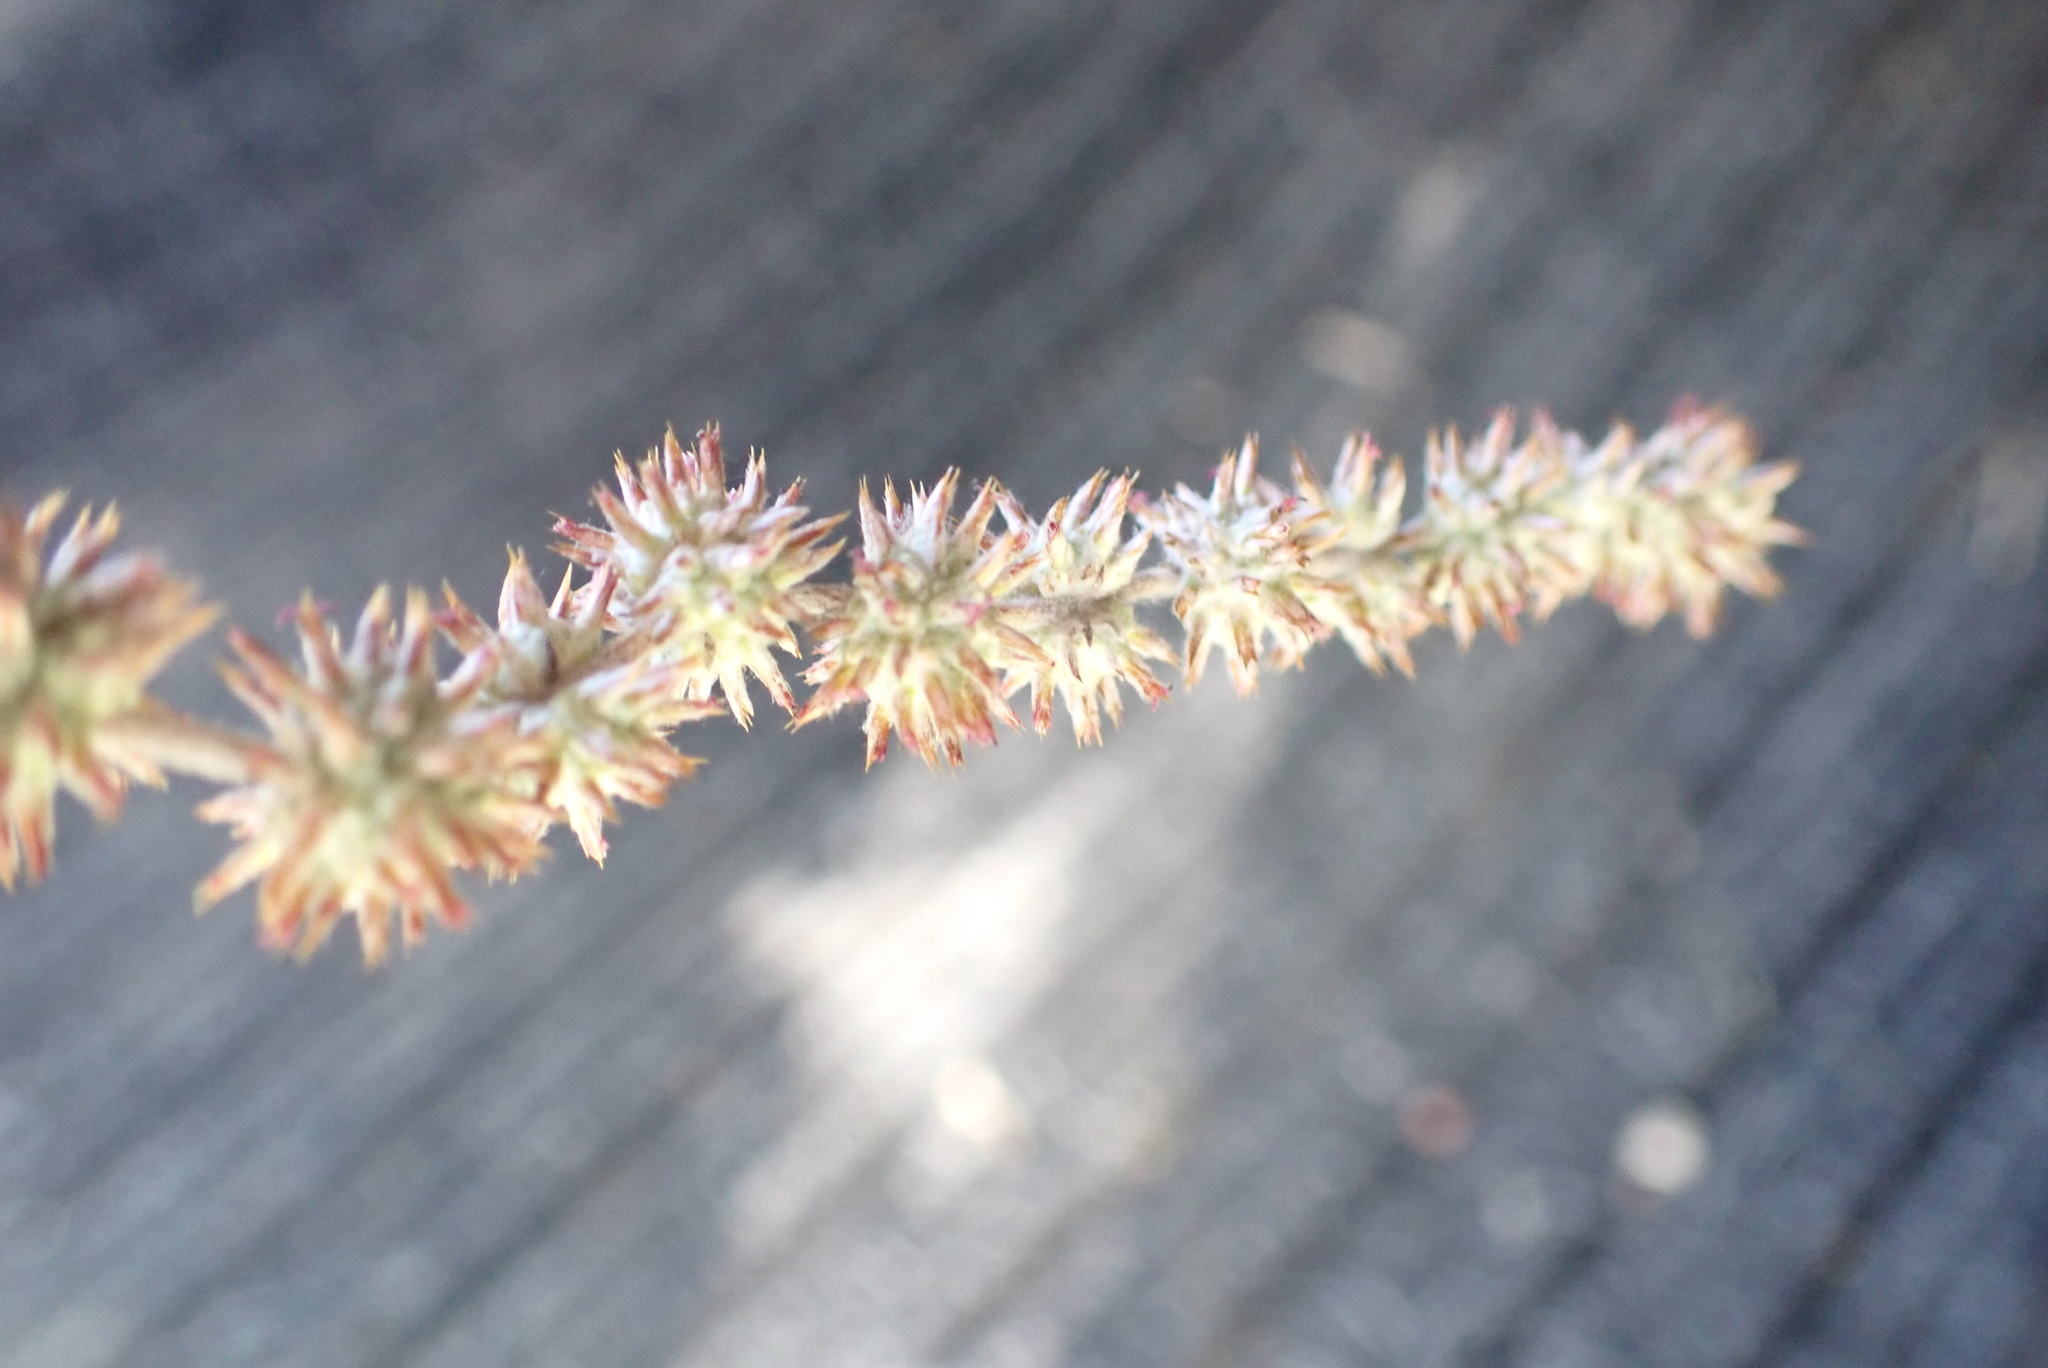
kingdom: Plantae
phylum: Tracheophyta
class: Magnoliopsida
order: Asterales
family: Asteraceae
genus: Seriphium
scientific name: Seriphium plumosum
